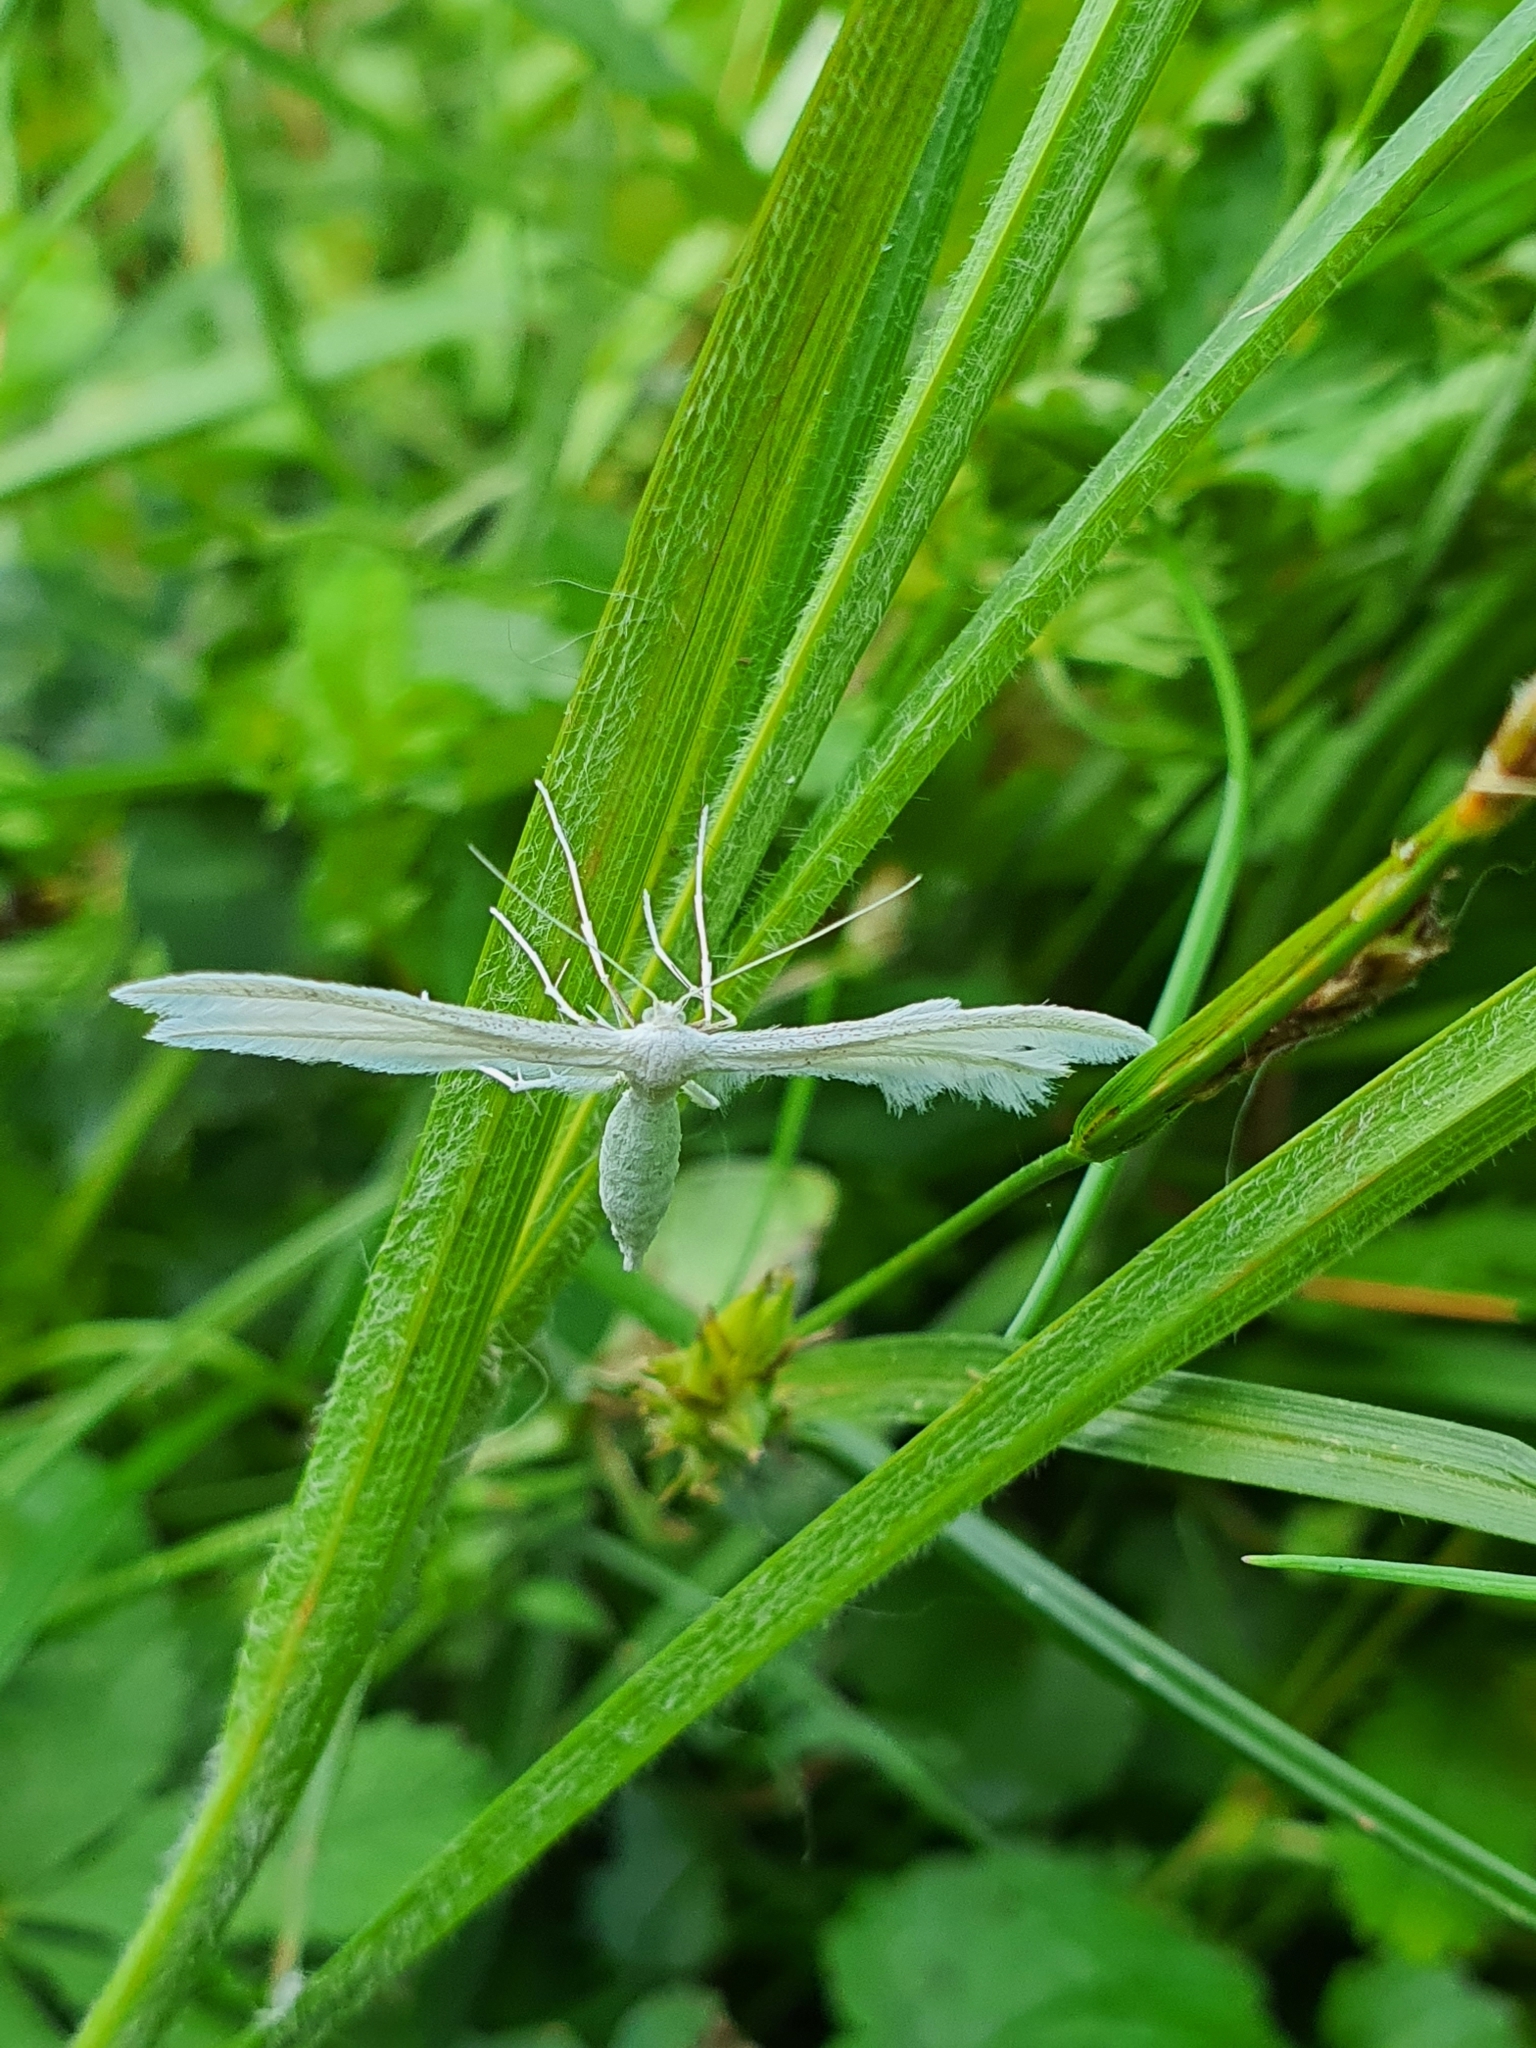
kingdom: Animalia
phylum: Arthropoda
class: Insecta
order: Lepidoptera
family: Pterophoridae
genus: Pterophorus
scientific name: Pterophorus pentadactyla
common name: White plume moth
